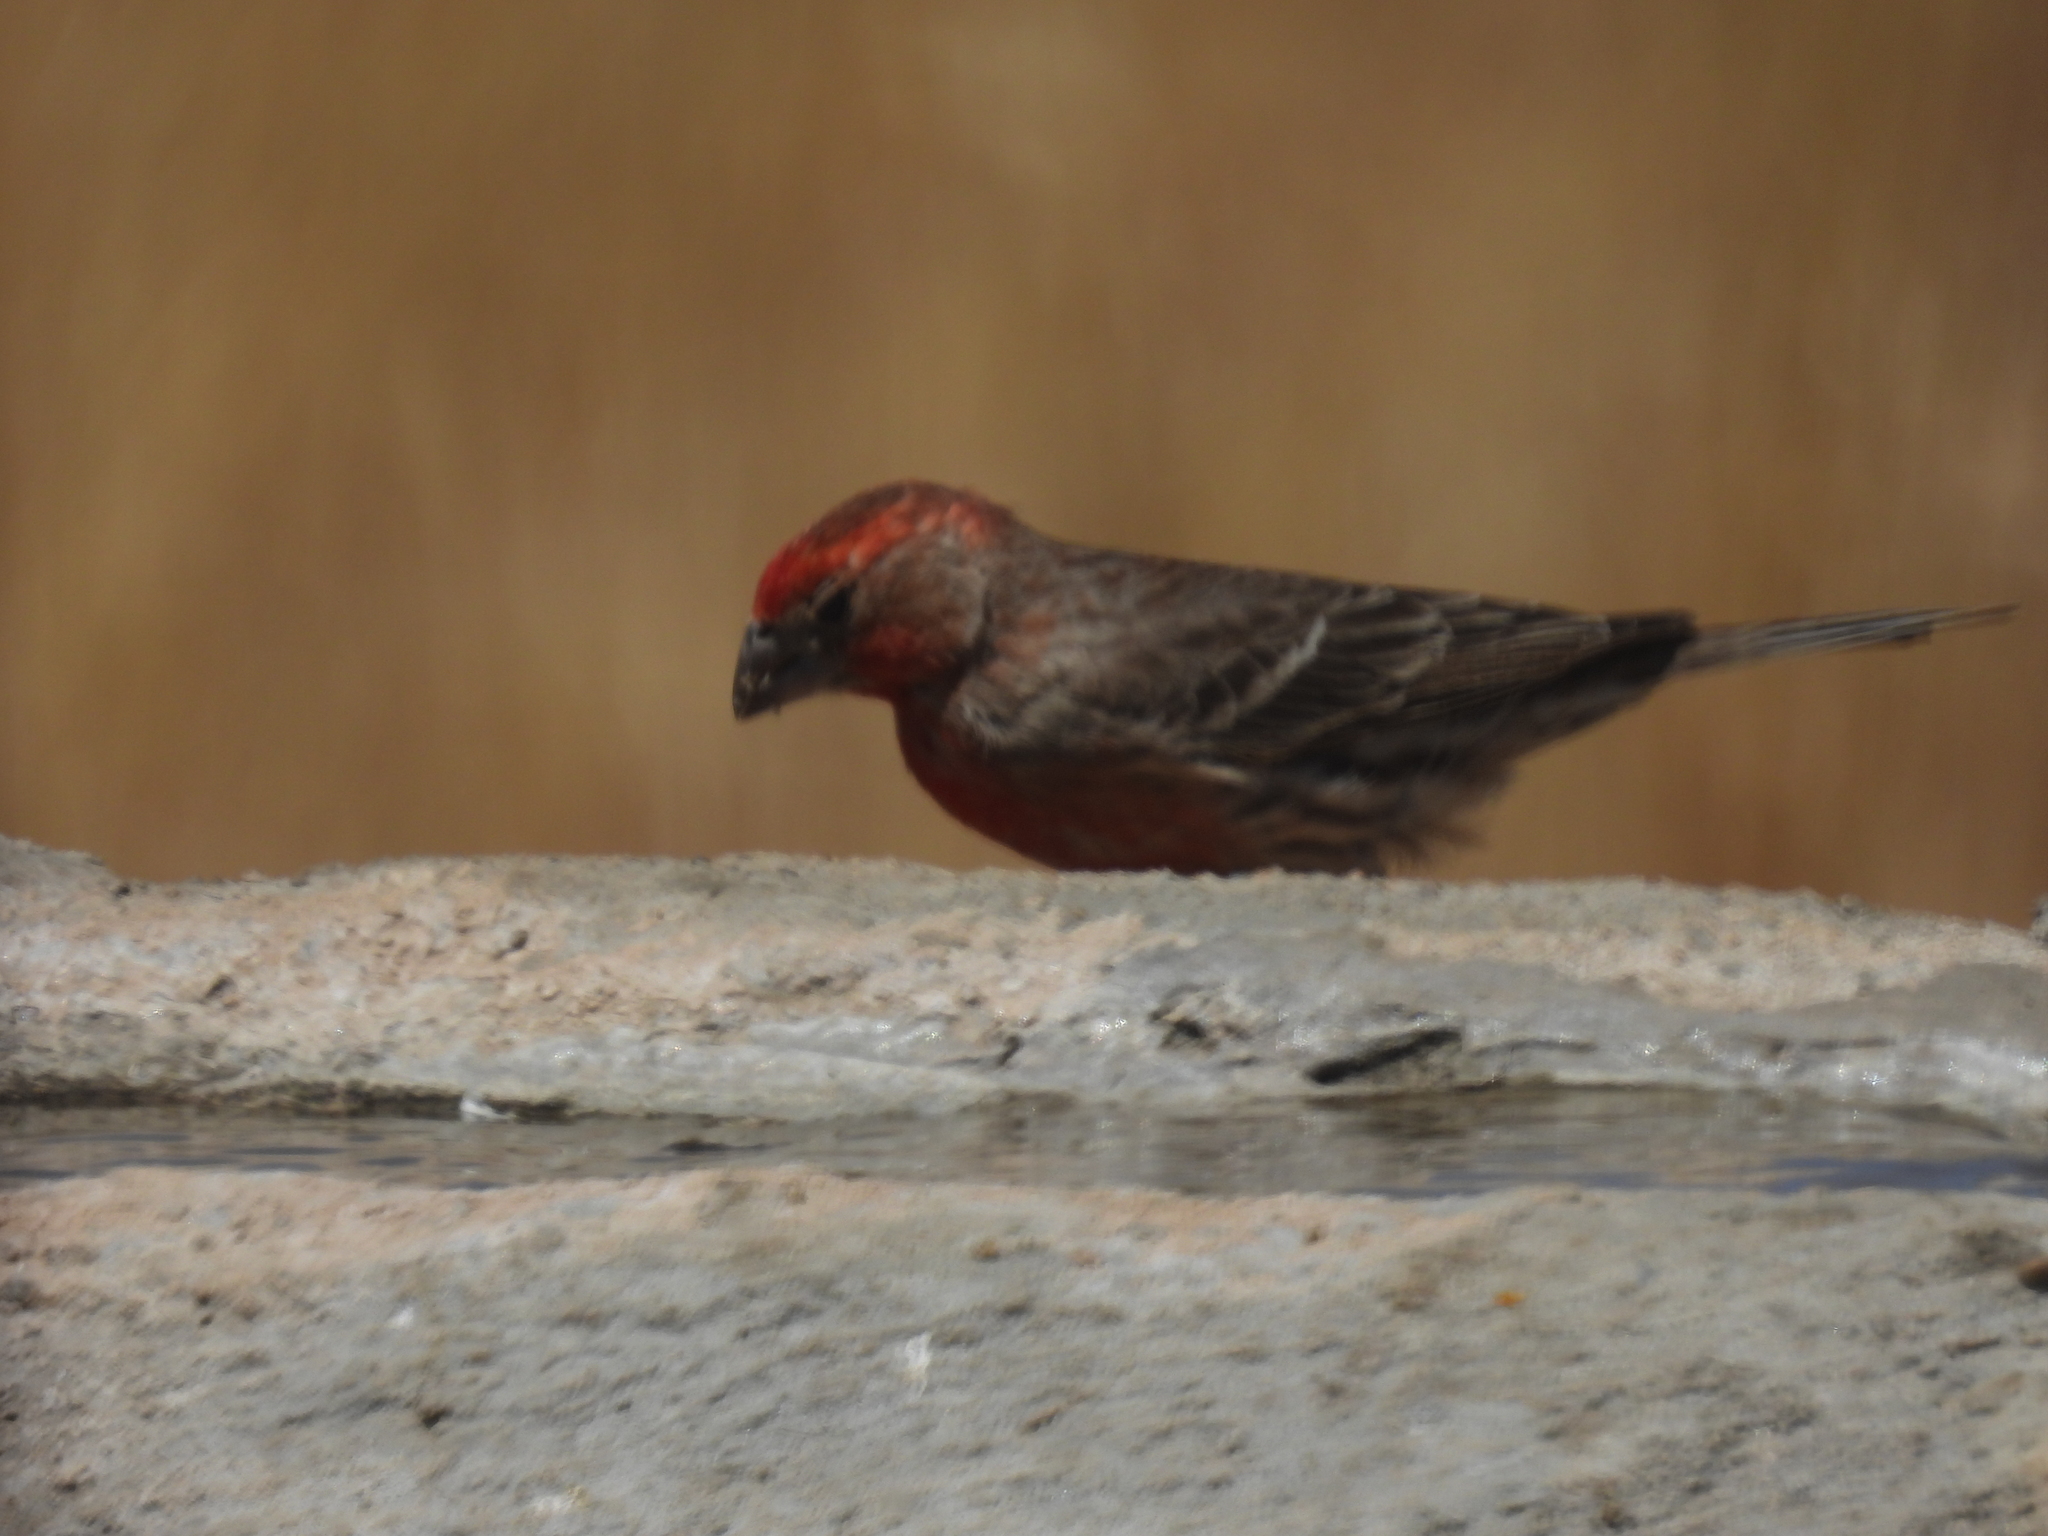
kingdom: Animalia
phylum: Chordata
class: Aves
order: Passeriformes
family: Fringillidae
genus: Haemorhous
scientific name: Haemorhous mexicanus
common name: House finch
